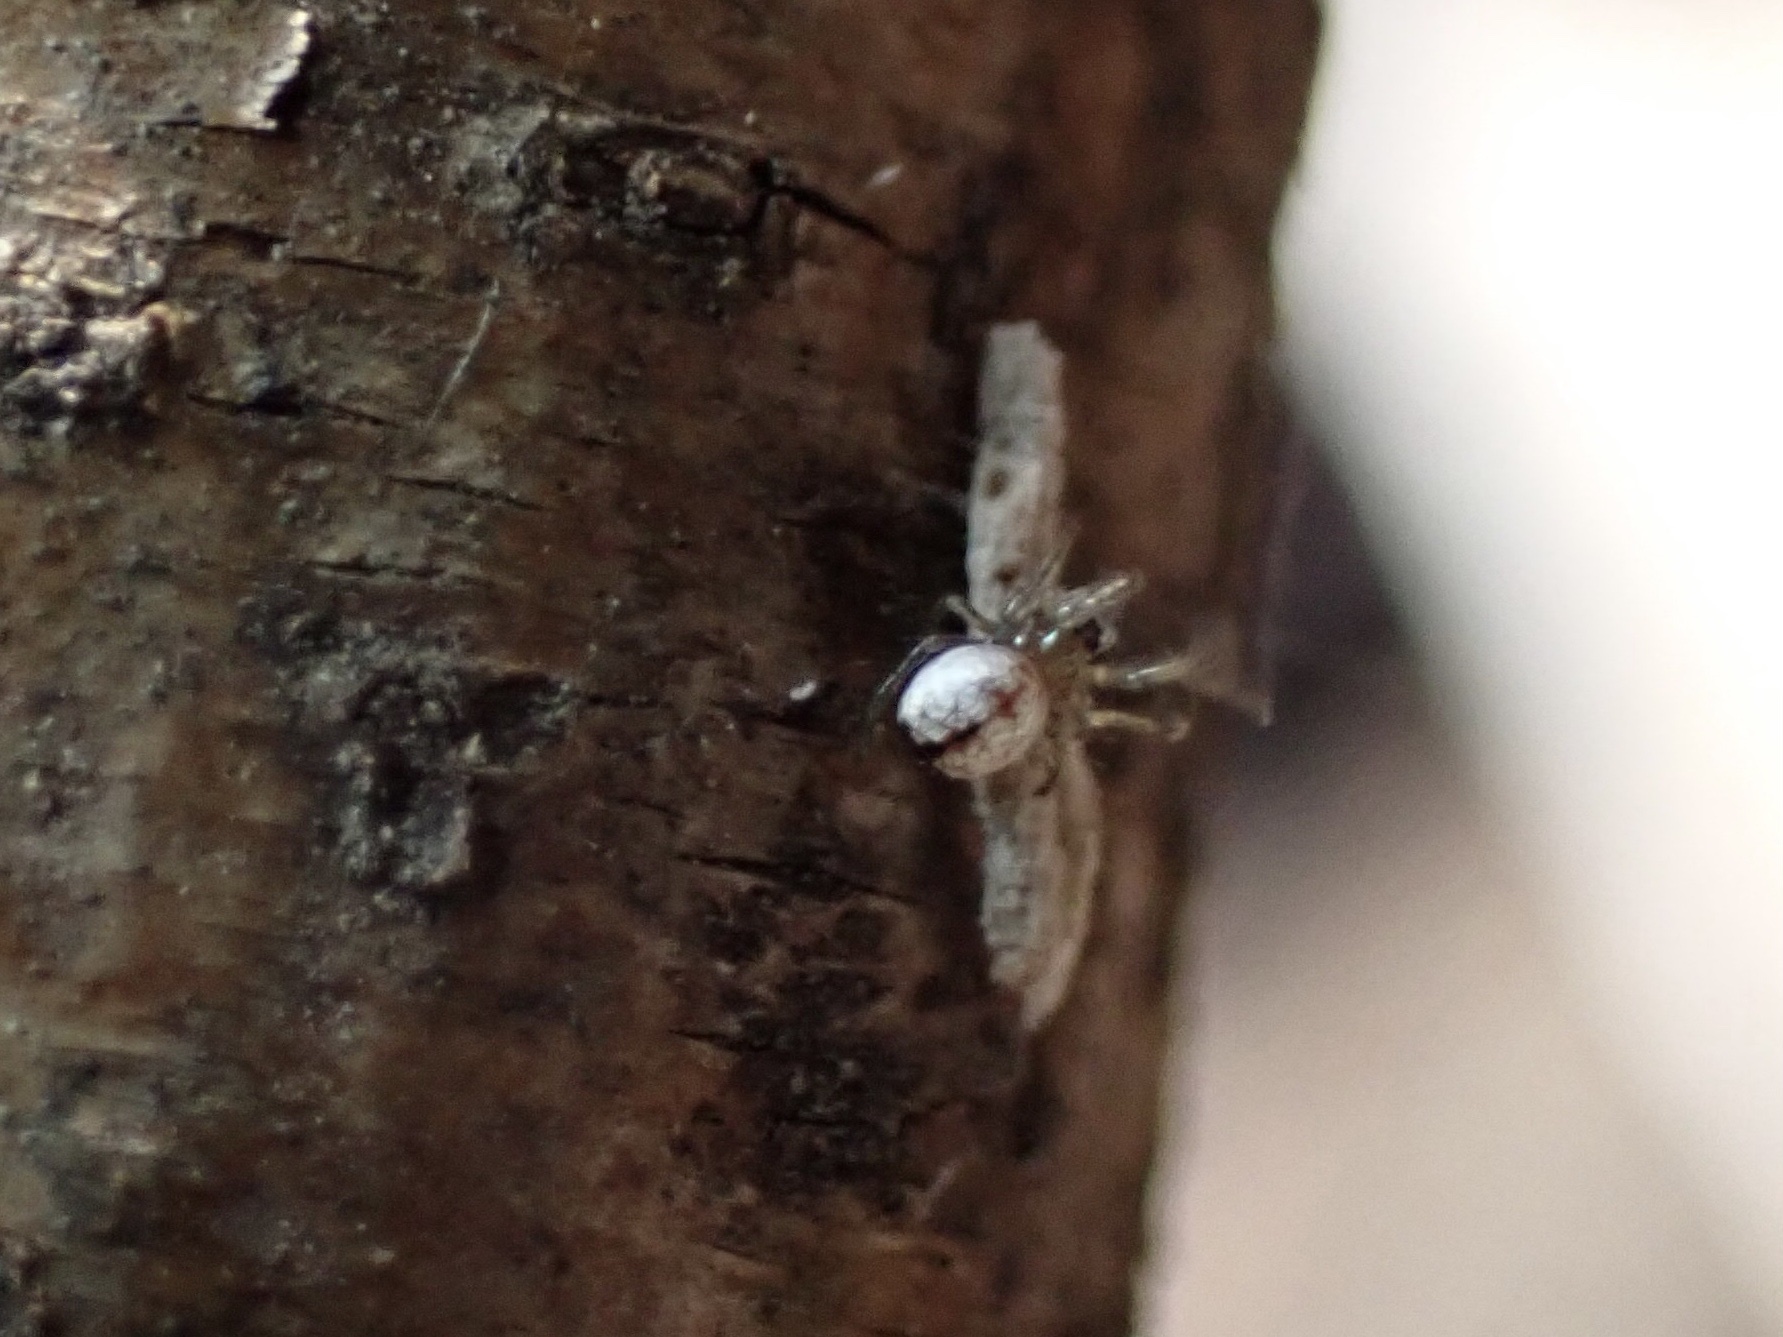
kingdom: Animalia
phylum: Arthropoda
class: Arachnida
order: Araneae
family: Tetragnathidae
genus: Leucauge
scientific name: Leucauge venusta
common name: Longjawed orb weavers
